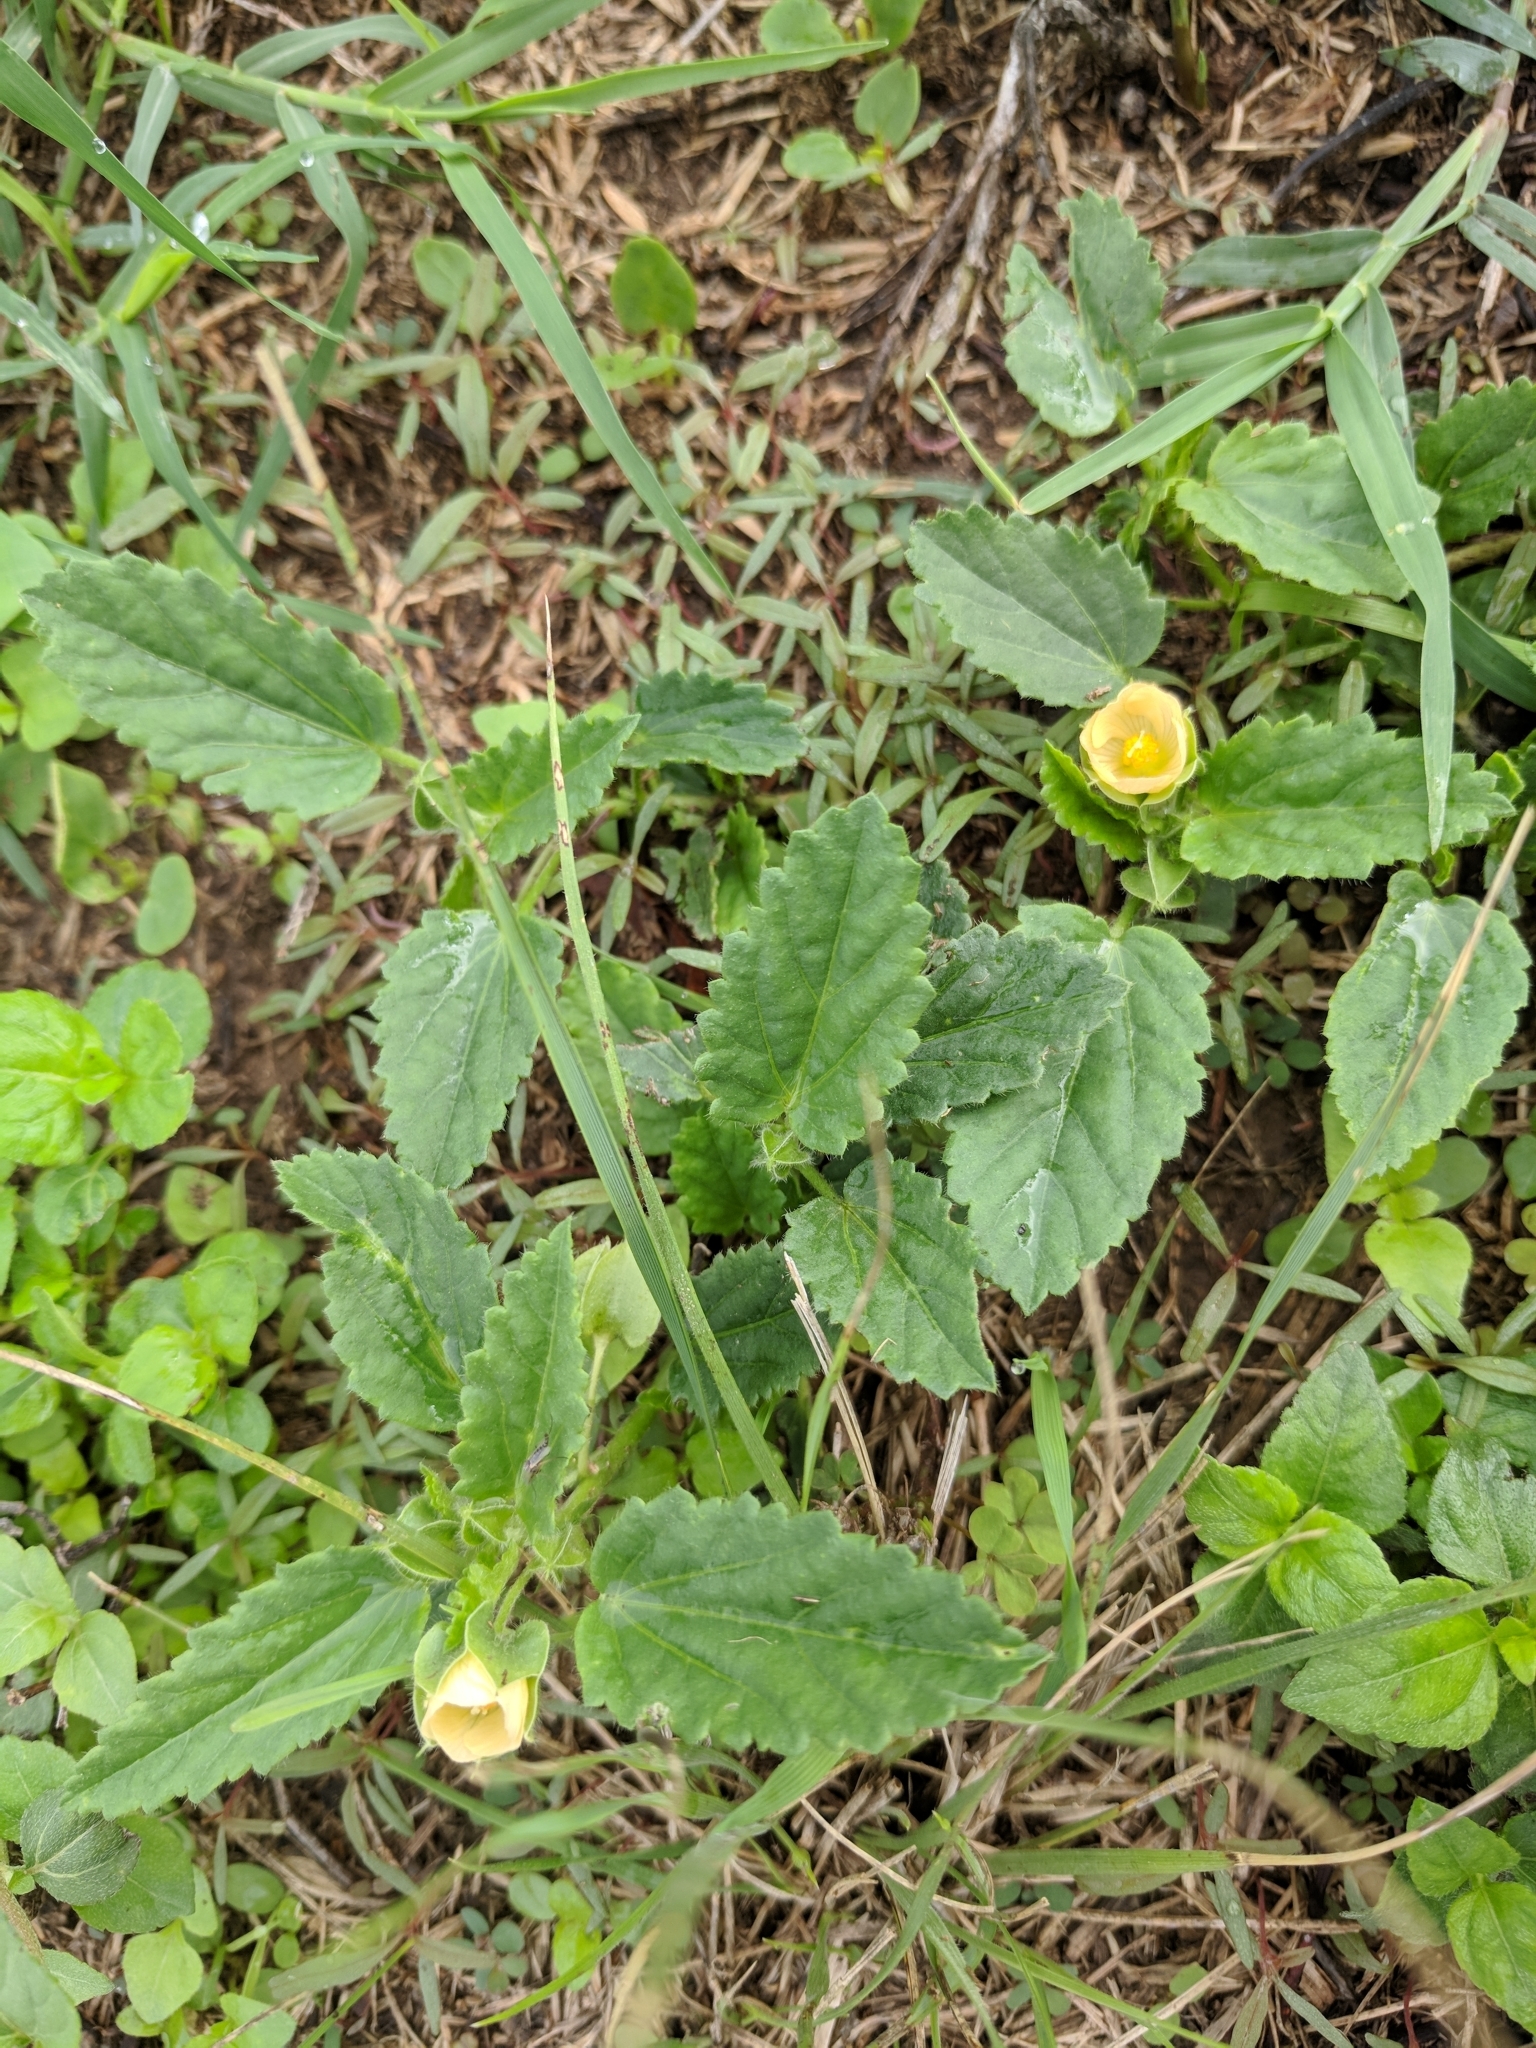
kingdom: Plantae
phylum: Tracheophyta
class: Magnoliopsida
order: Malvales
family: Malvaceae
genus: Rhynchosida
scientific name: Rhynchosida physocalyx
